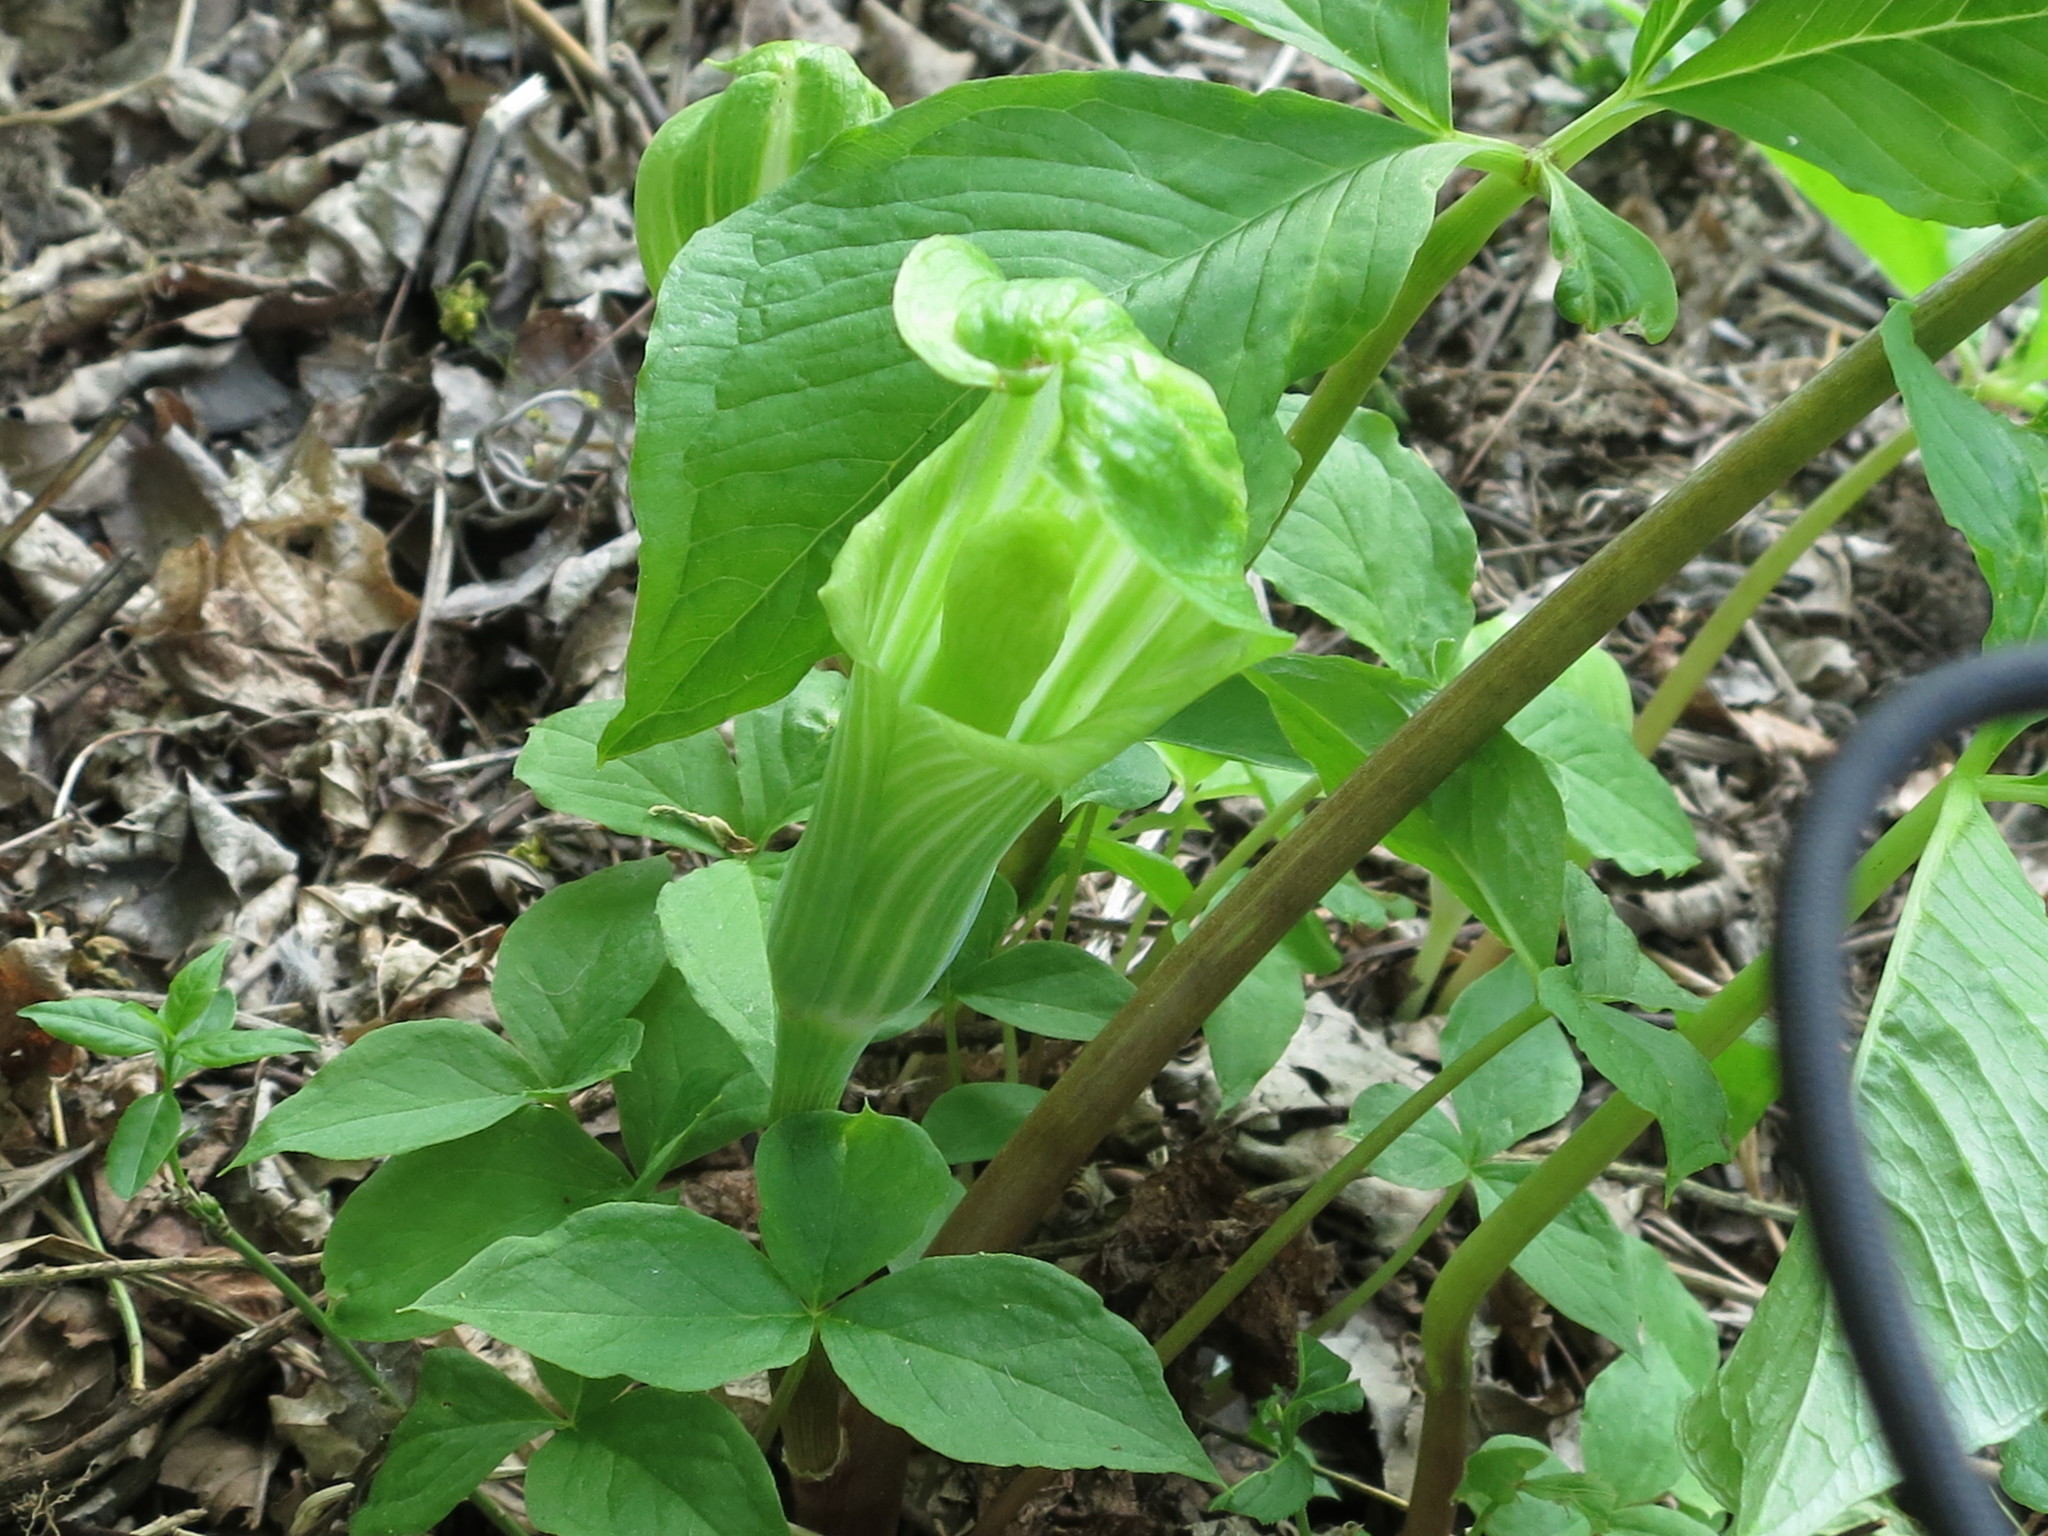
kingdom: Plantae
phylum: Tracheophyta
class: Liliopsida
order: Alismatales
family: Araceae
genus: Arisaema
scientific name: Arisaema amurense
